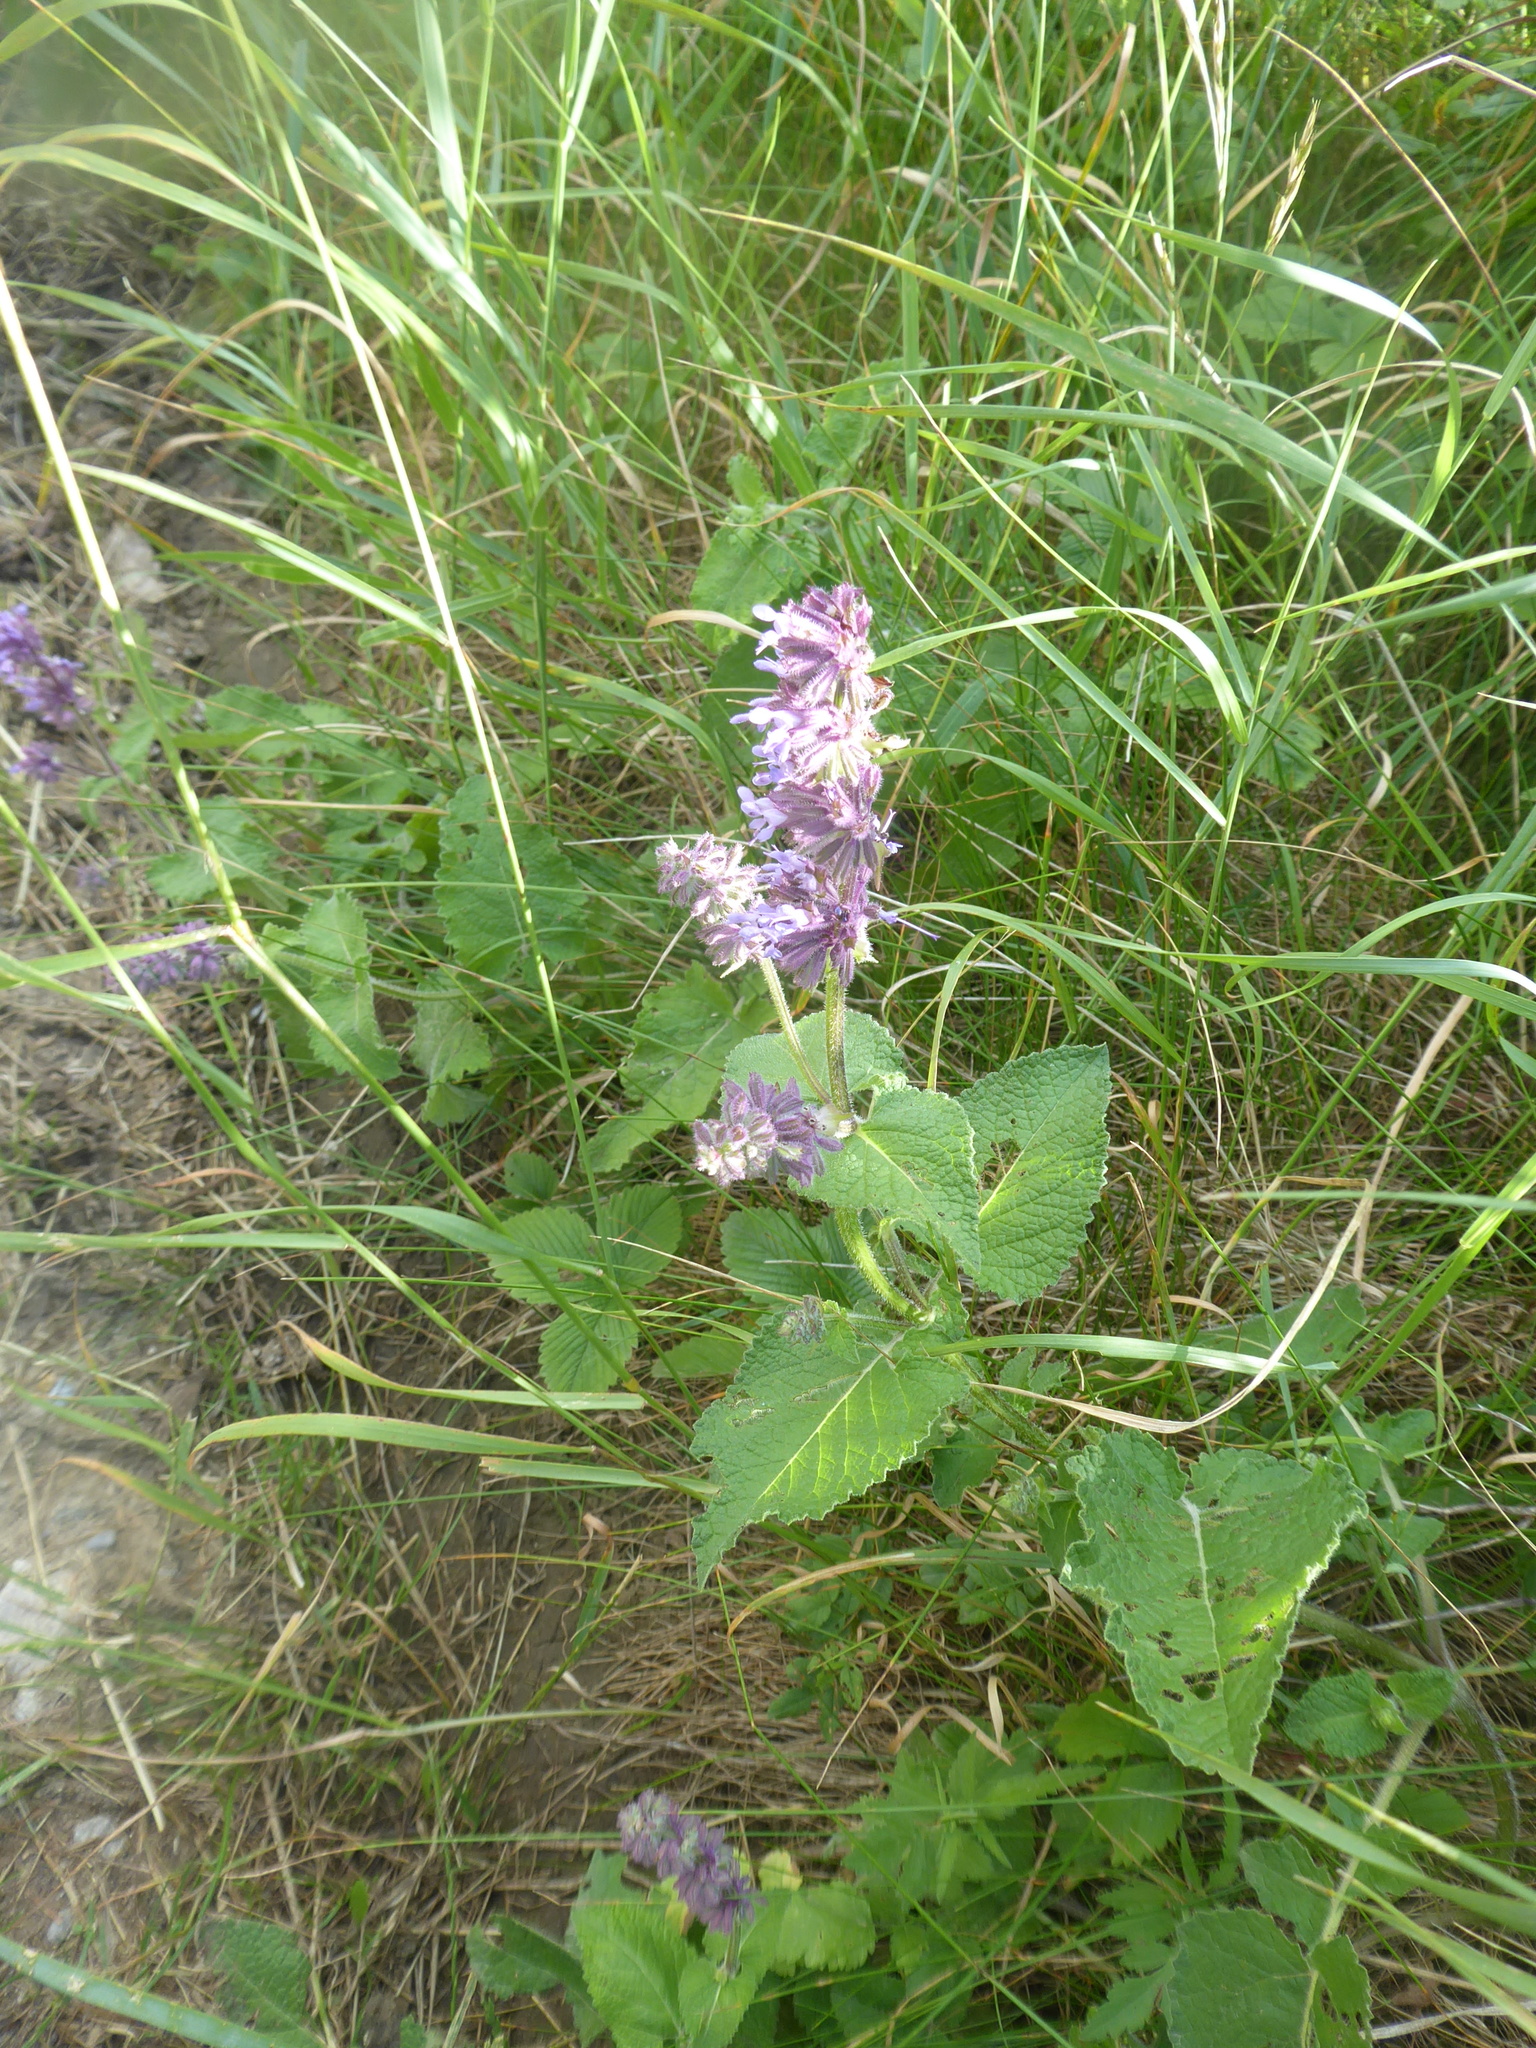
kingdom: Plantae
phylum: Tracheophyta
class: Magnoliopsida
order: Lamiales
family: Lamiaceae
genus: Salvia
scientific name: Salvia verticillata
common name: Whorled clary
